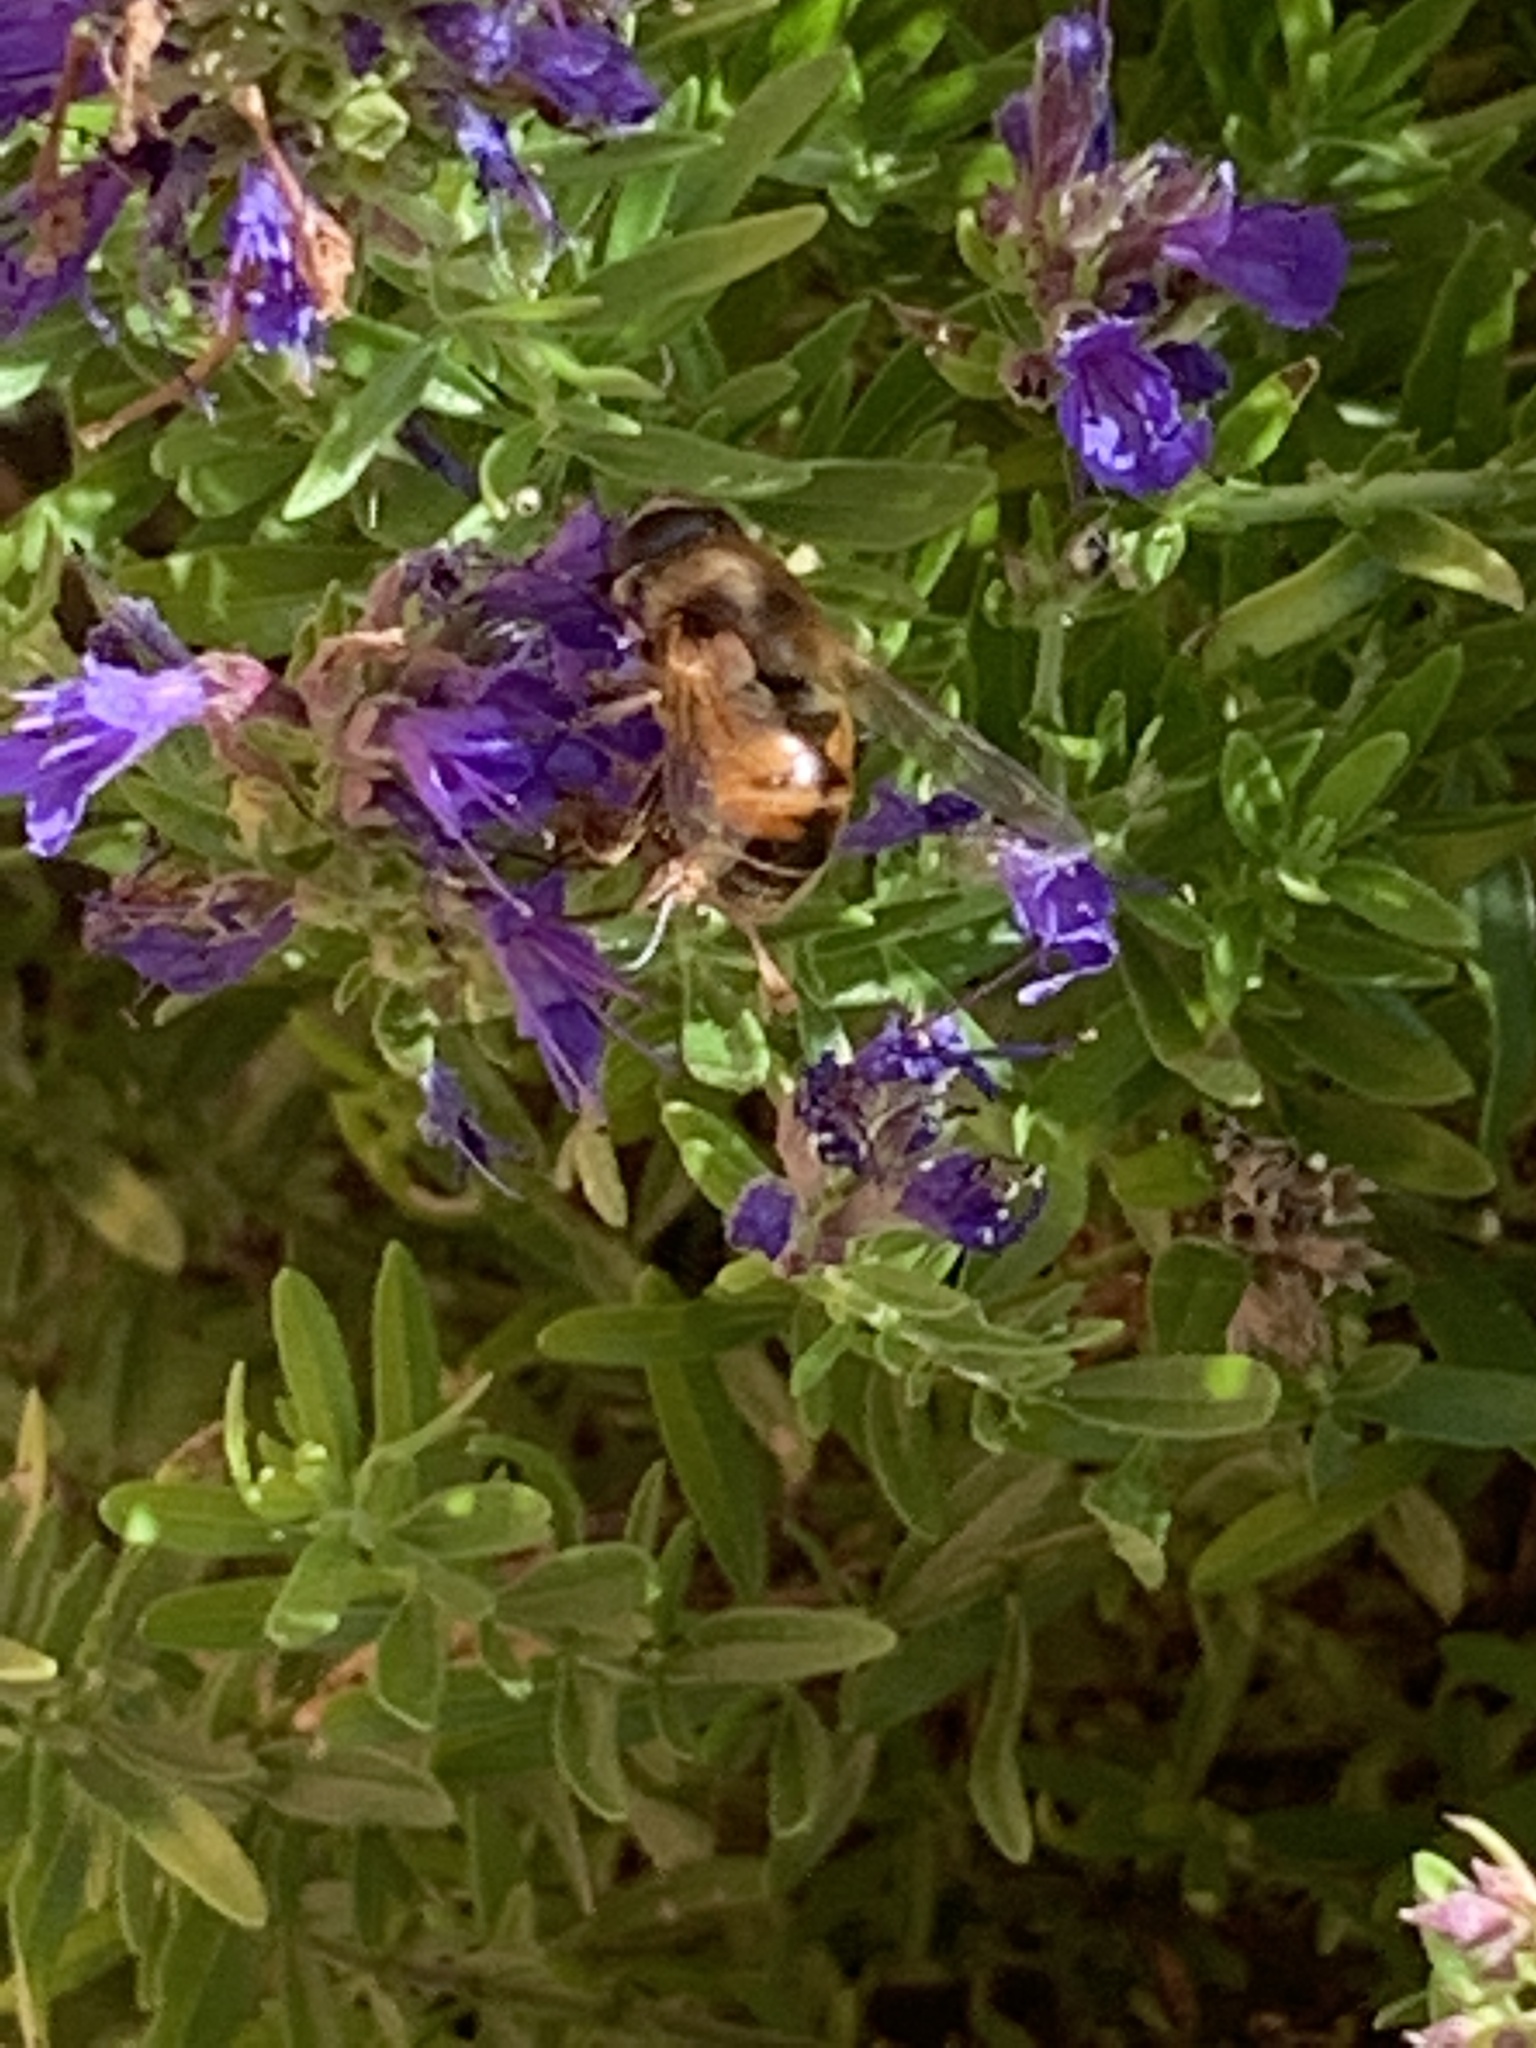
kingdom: Animalia
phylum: Arthropoda
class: Insecta
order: Diptera
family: Syrphidae
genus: Eristalis
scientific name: Eristalis tenax
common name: Drone fly
